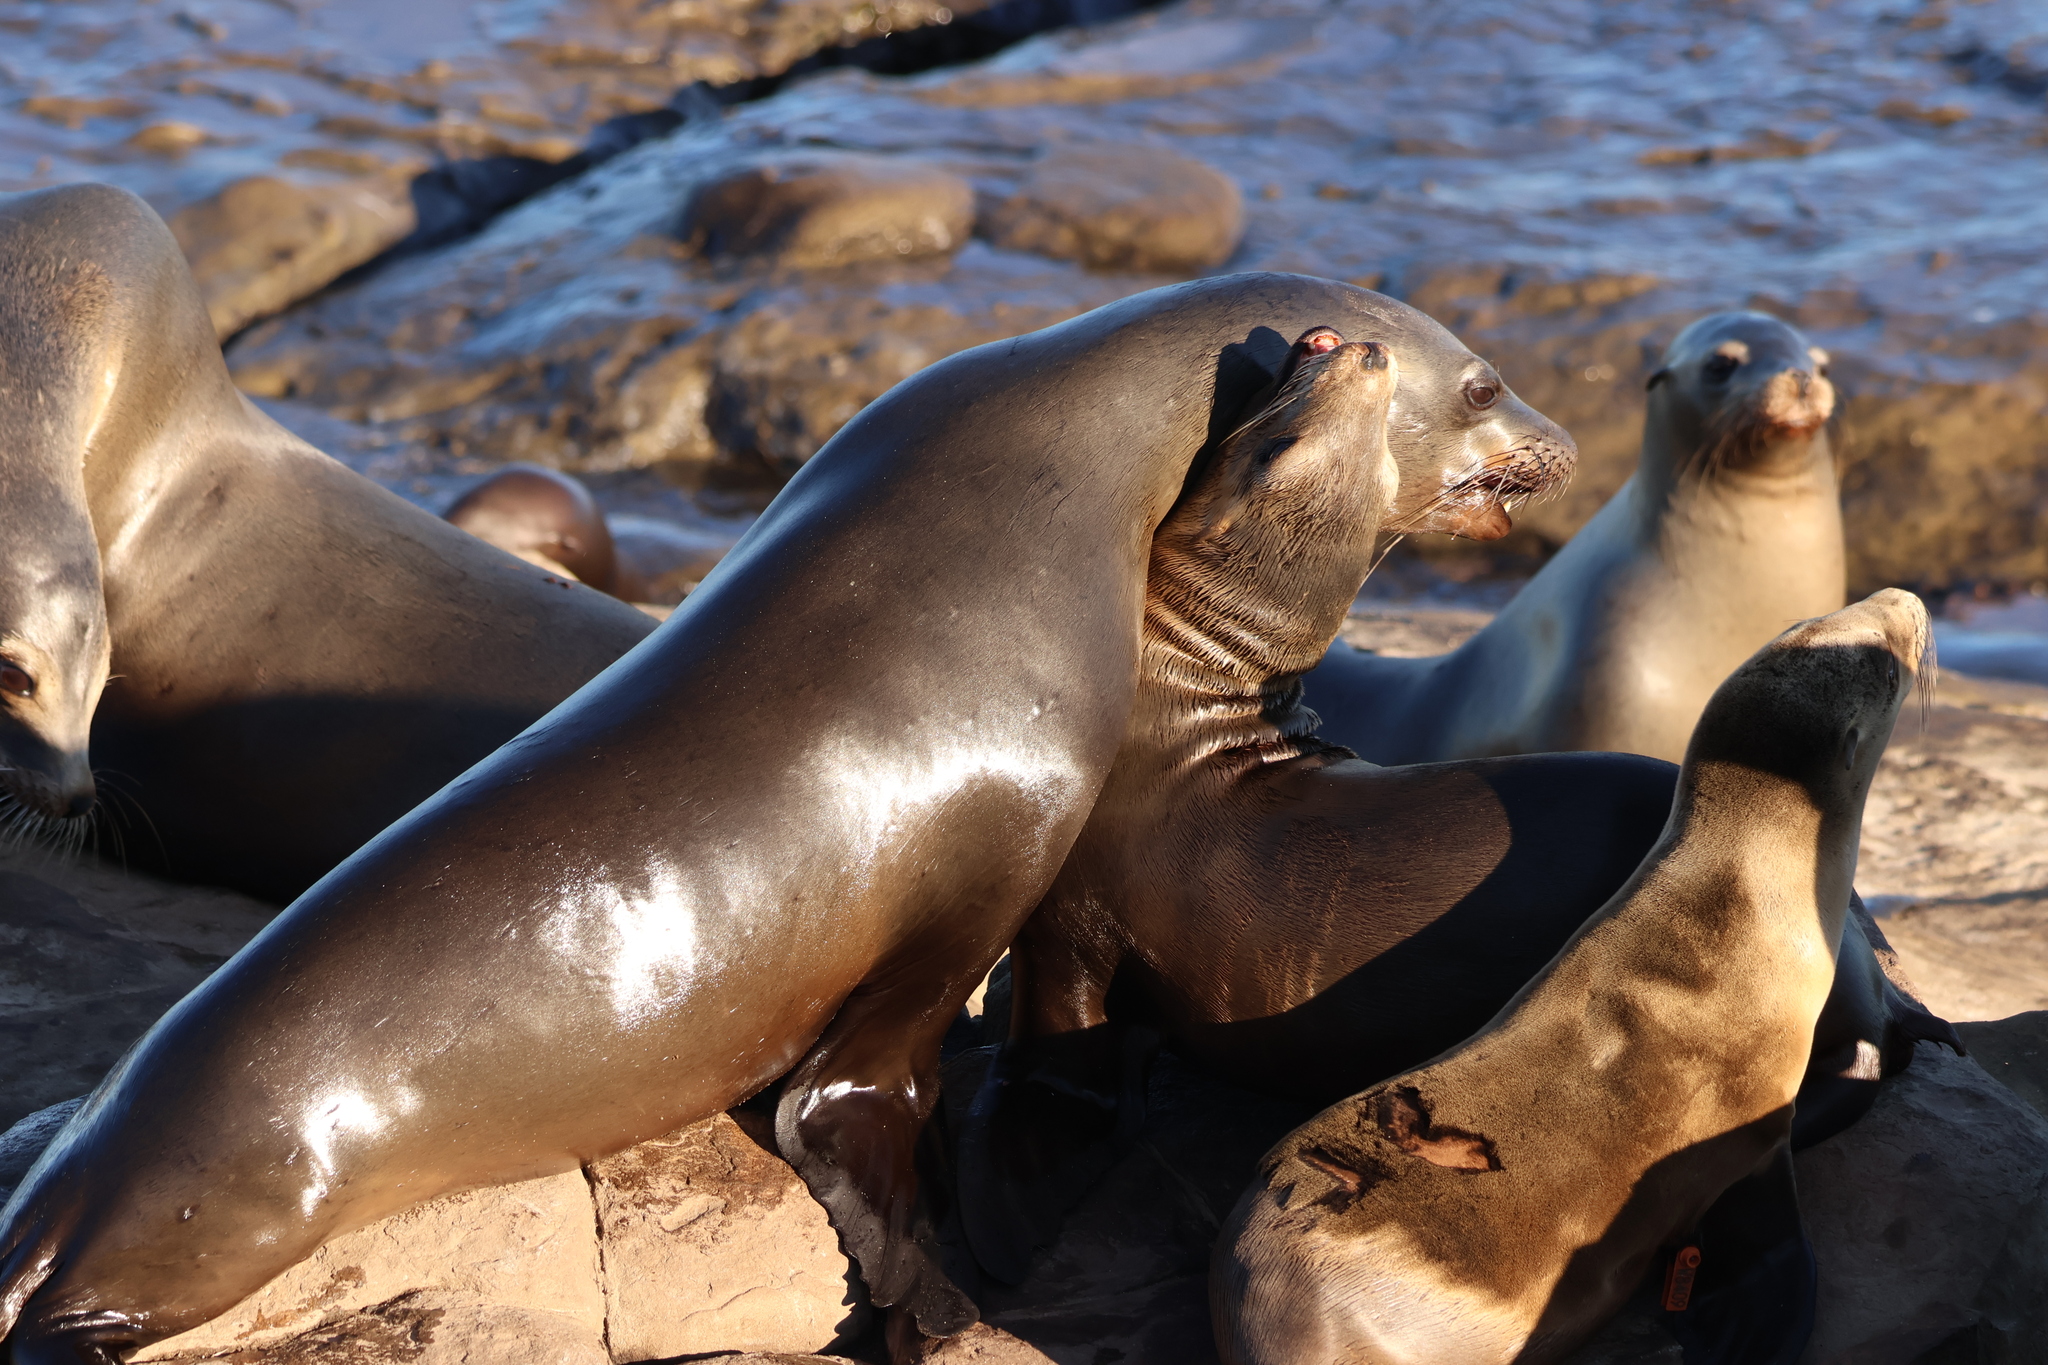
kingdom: Animalia
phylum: Chordata
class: Mammalia
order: Carnivora
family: Otariidae
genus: Zalophus
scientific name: Zalophus californianus
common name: California sea lion
